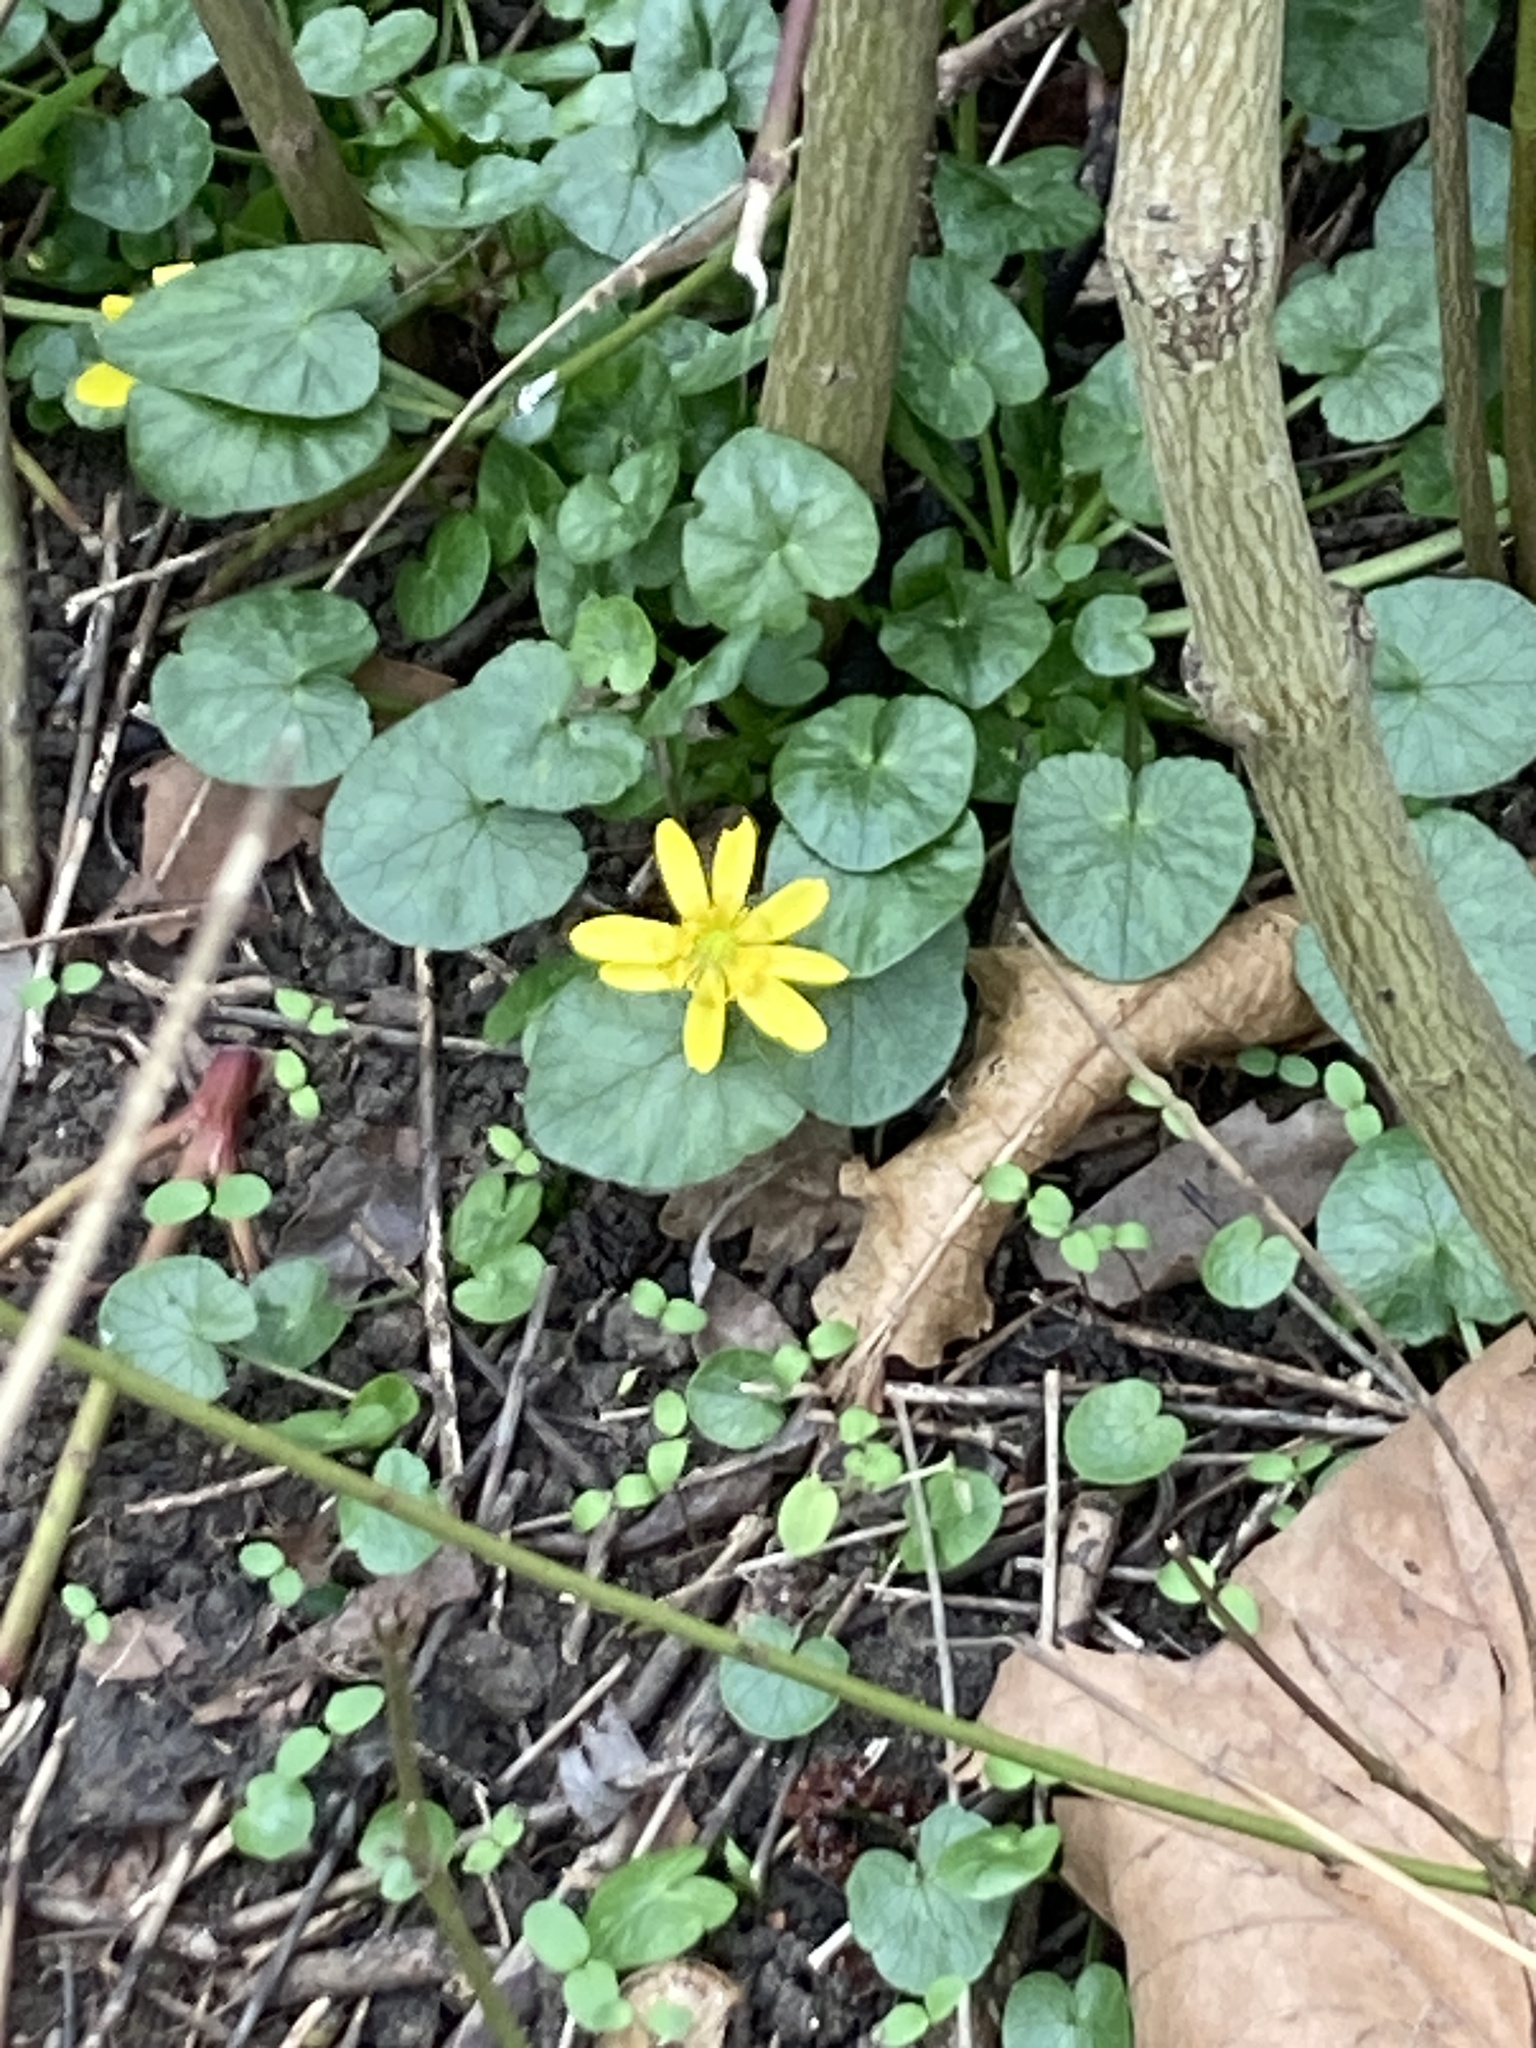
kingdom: Plantae
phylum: Tracheophyta
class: Magnoliopsida
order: Ranunculales
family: Ranunculaceae
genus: Ficaria
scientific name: Ficaria verna
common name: Lesser celandine
